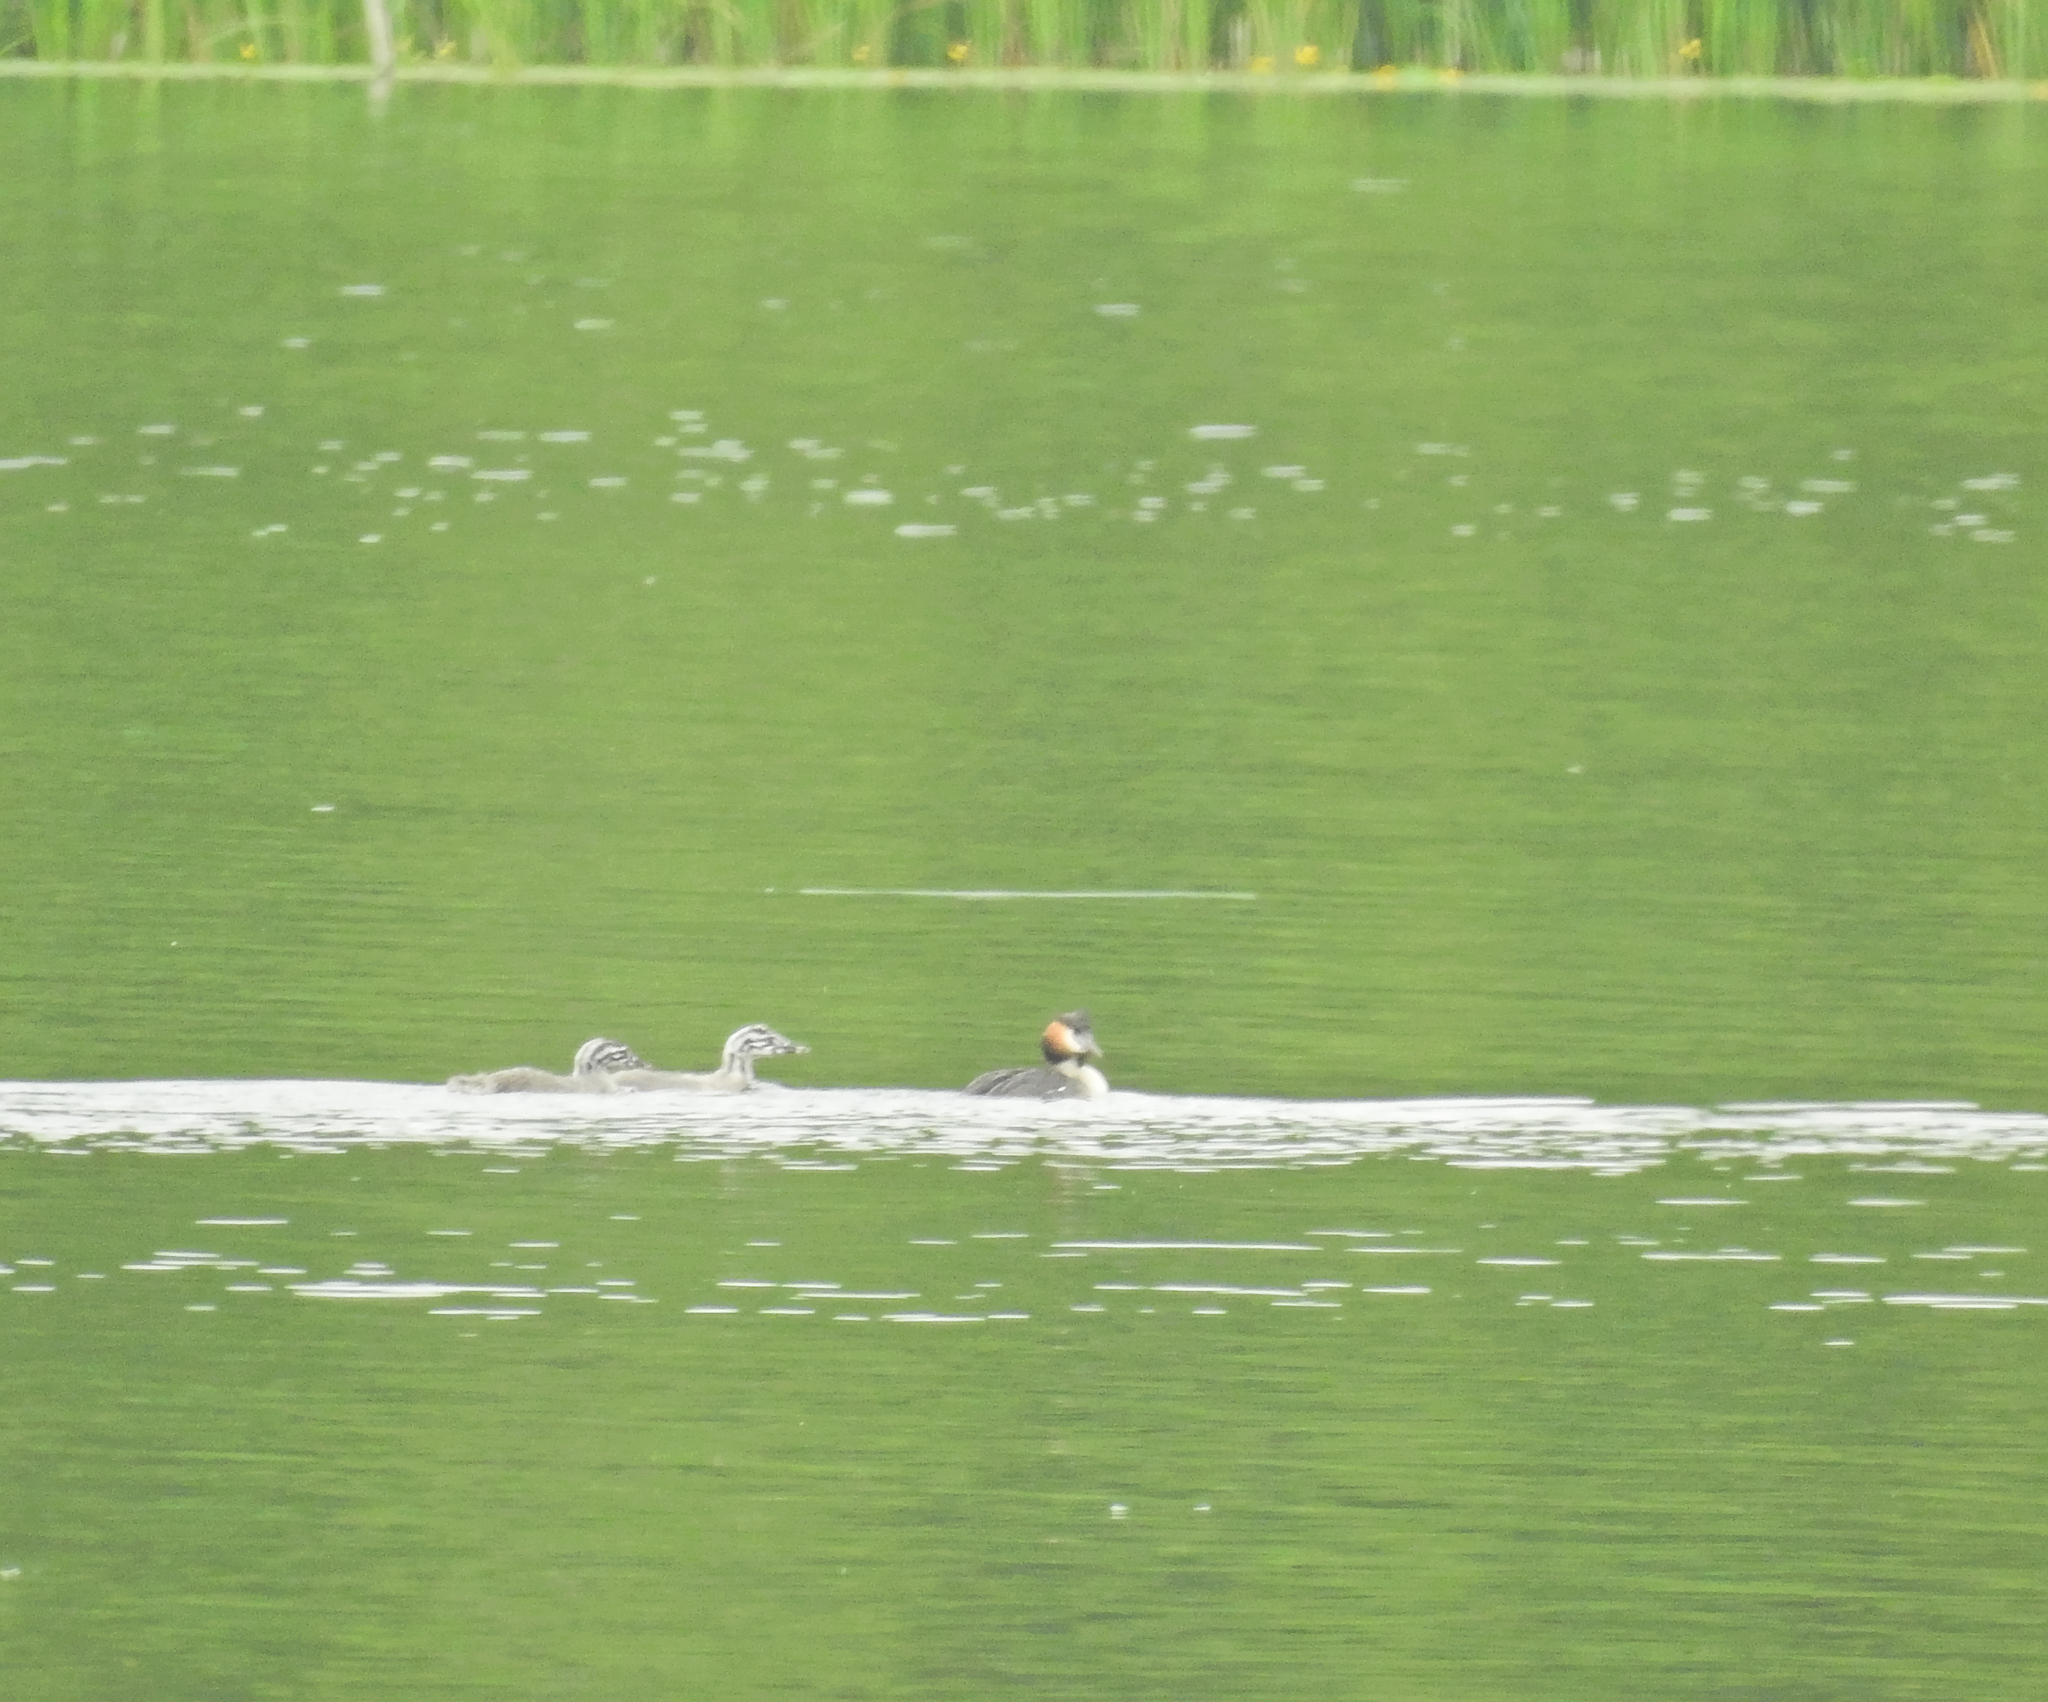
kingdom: Animalia
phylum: Chordata
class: Aves
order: Podicipediformes
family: Podicipedidae
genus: Podiceps
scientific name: Podiceps cristatus
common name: Great crested grebe
